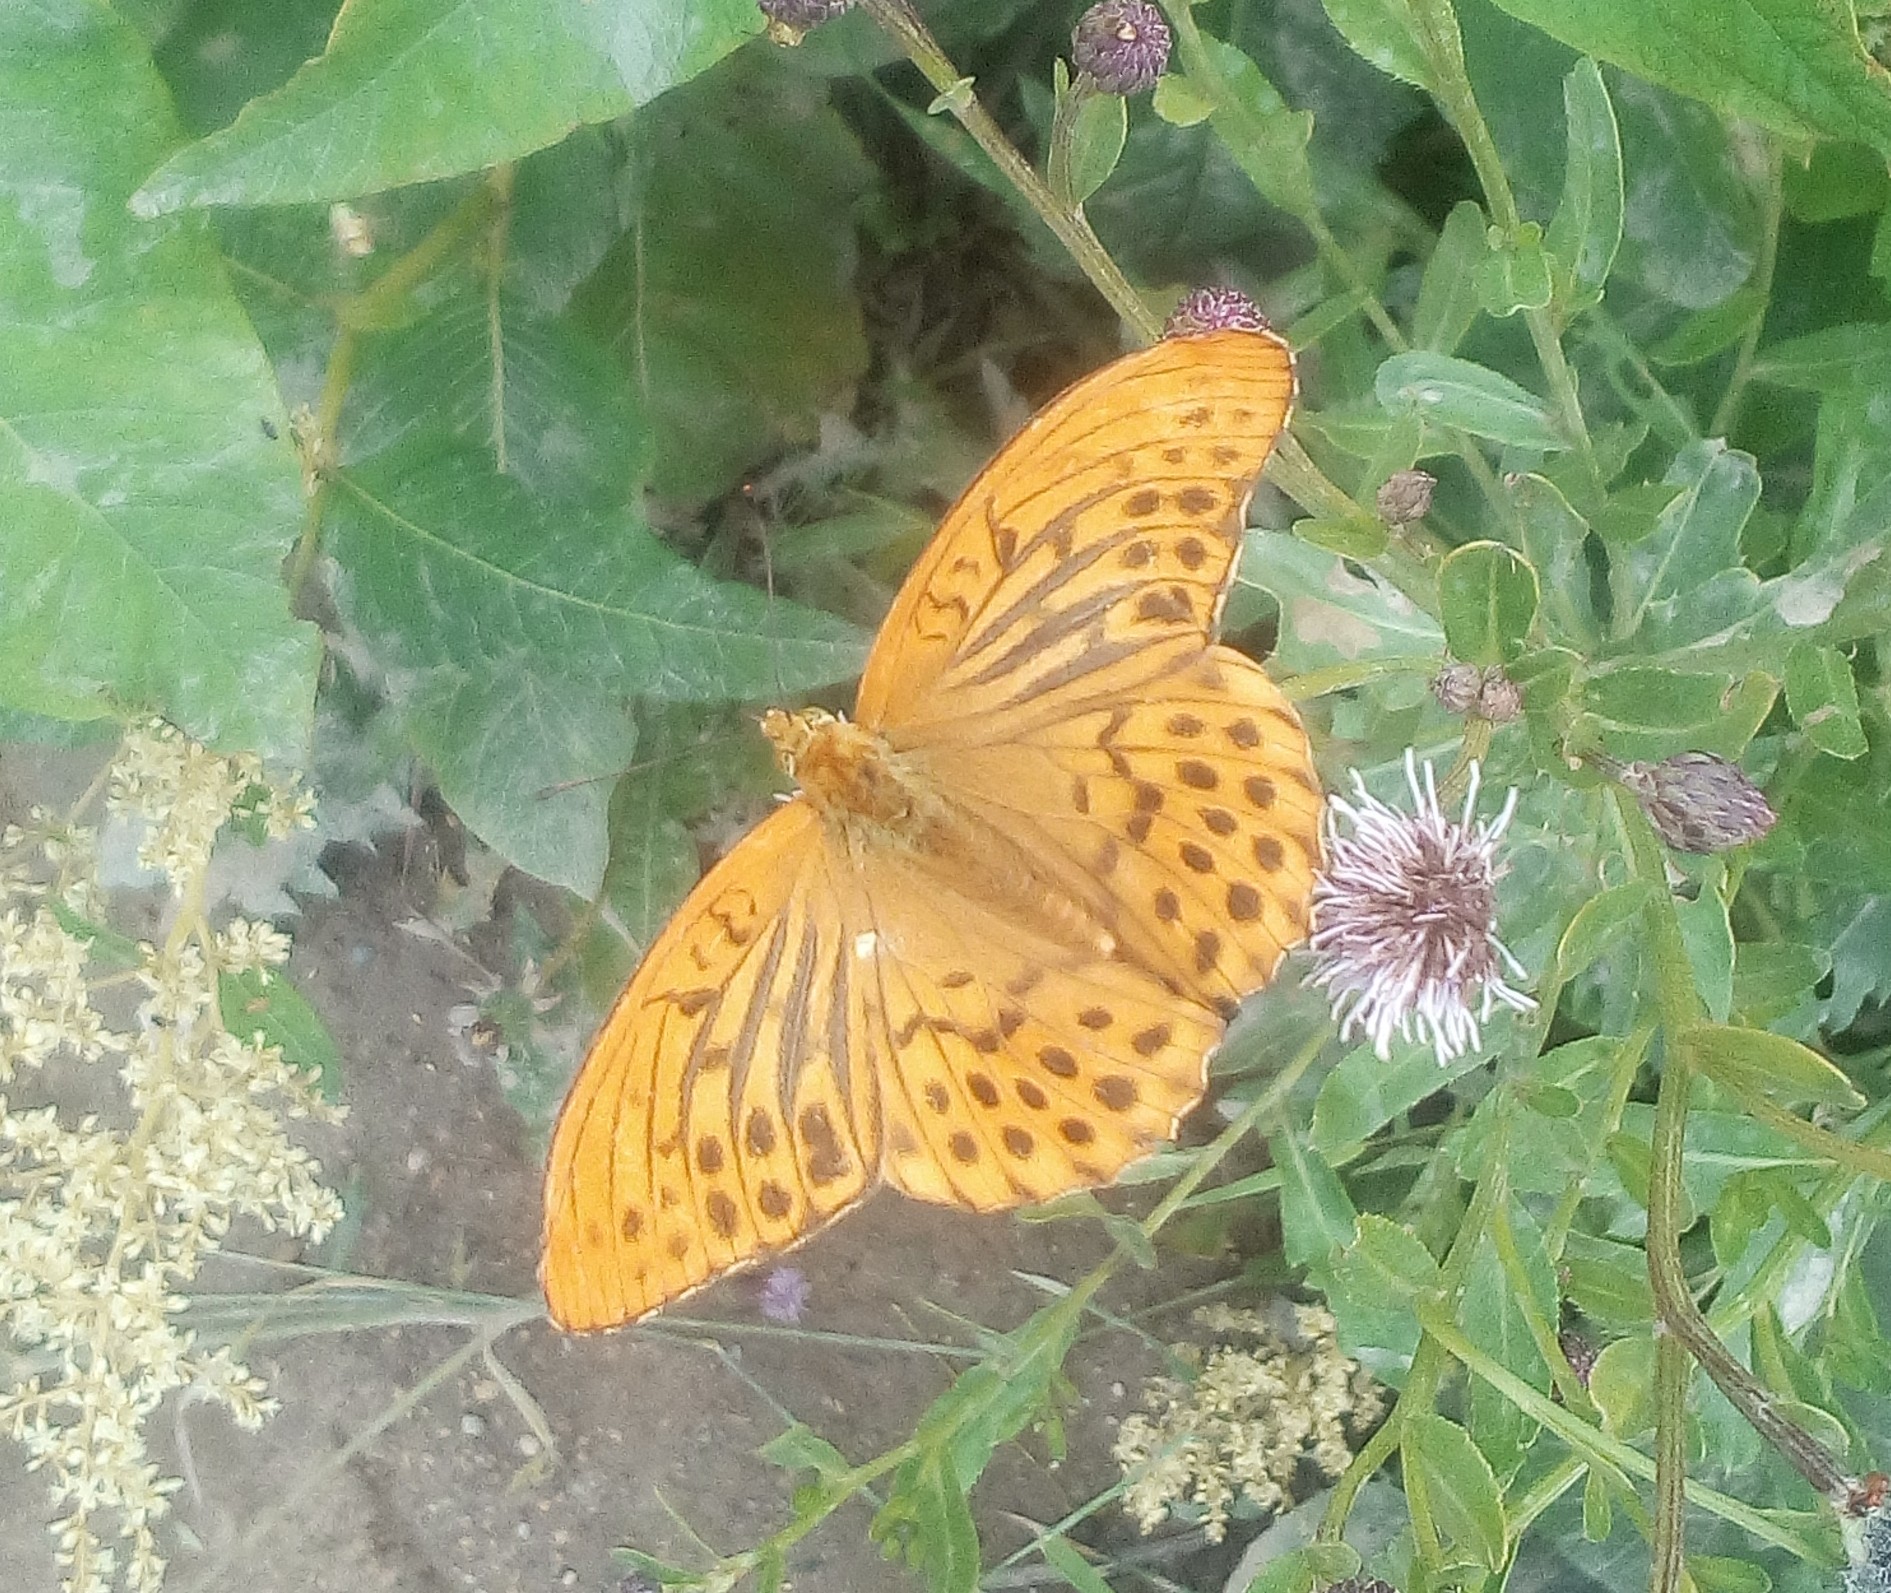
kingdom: Animalia
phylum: Arthropoda
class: Insecta
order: Lepidoptera
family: Nymphalidae
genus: Argynnis
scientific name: Argynnis paphia
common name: Silver-washed fritillary
